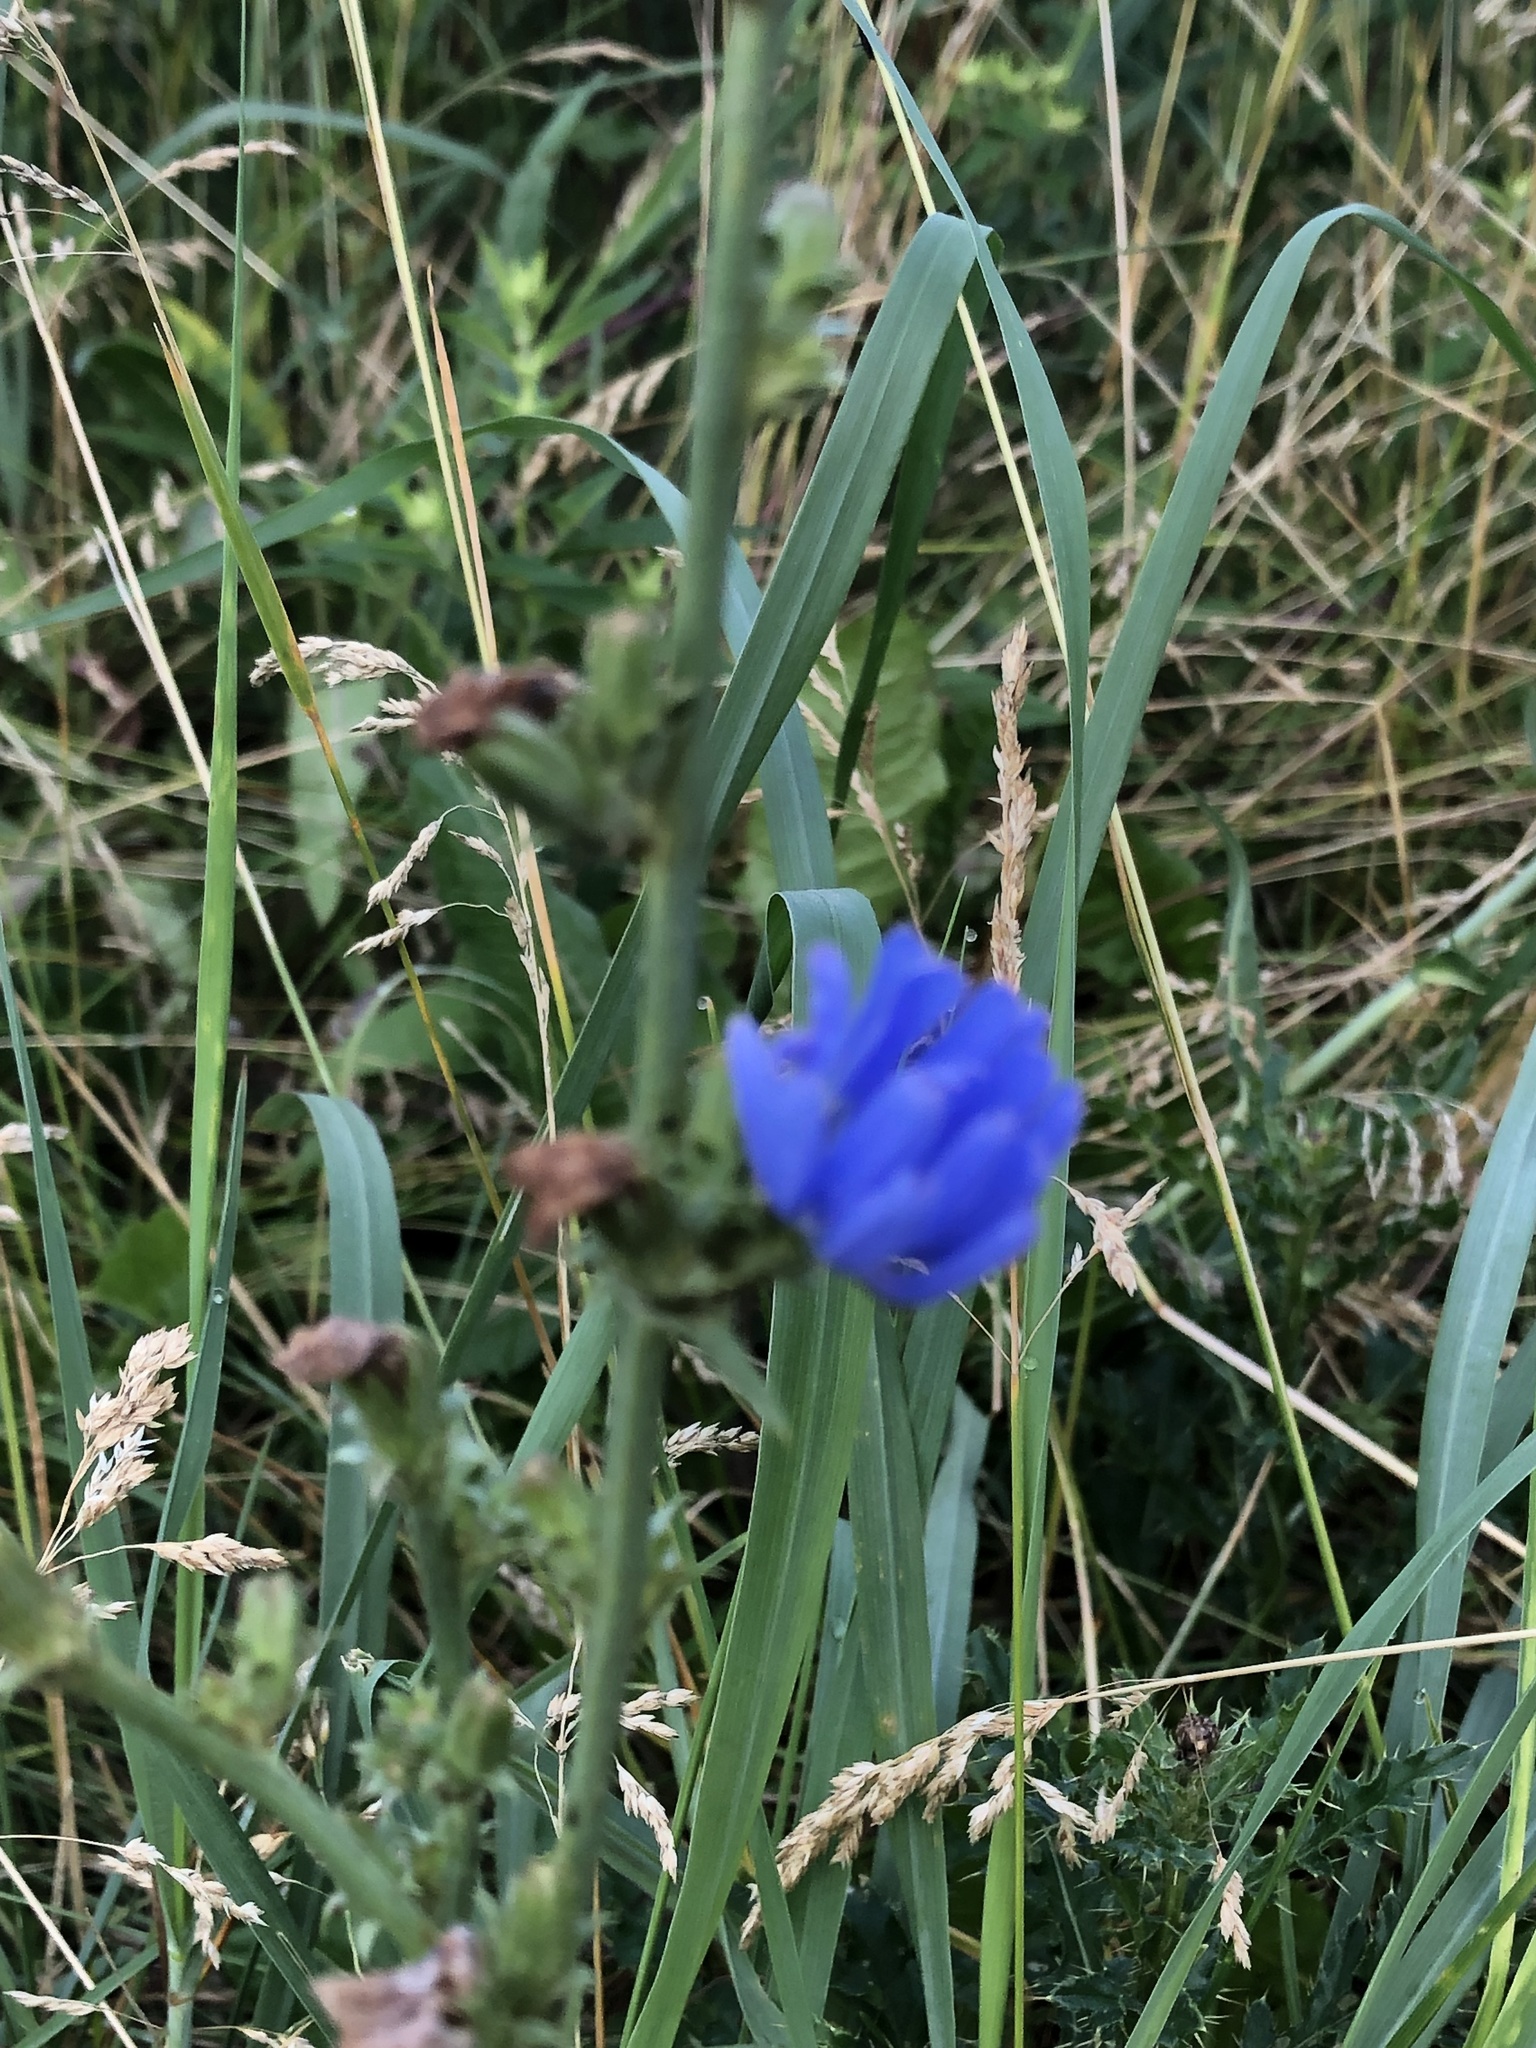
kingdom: Plantae
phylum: Tracheophyta
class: Magnoliopsida
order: Asterales
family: Asteraceae
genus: Cichorium
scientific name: Cichorium intybus
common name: Chicory
